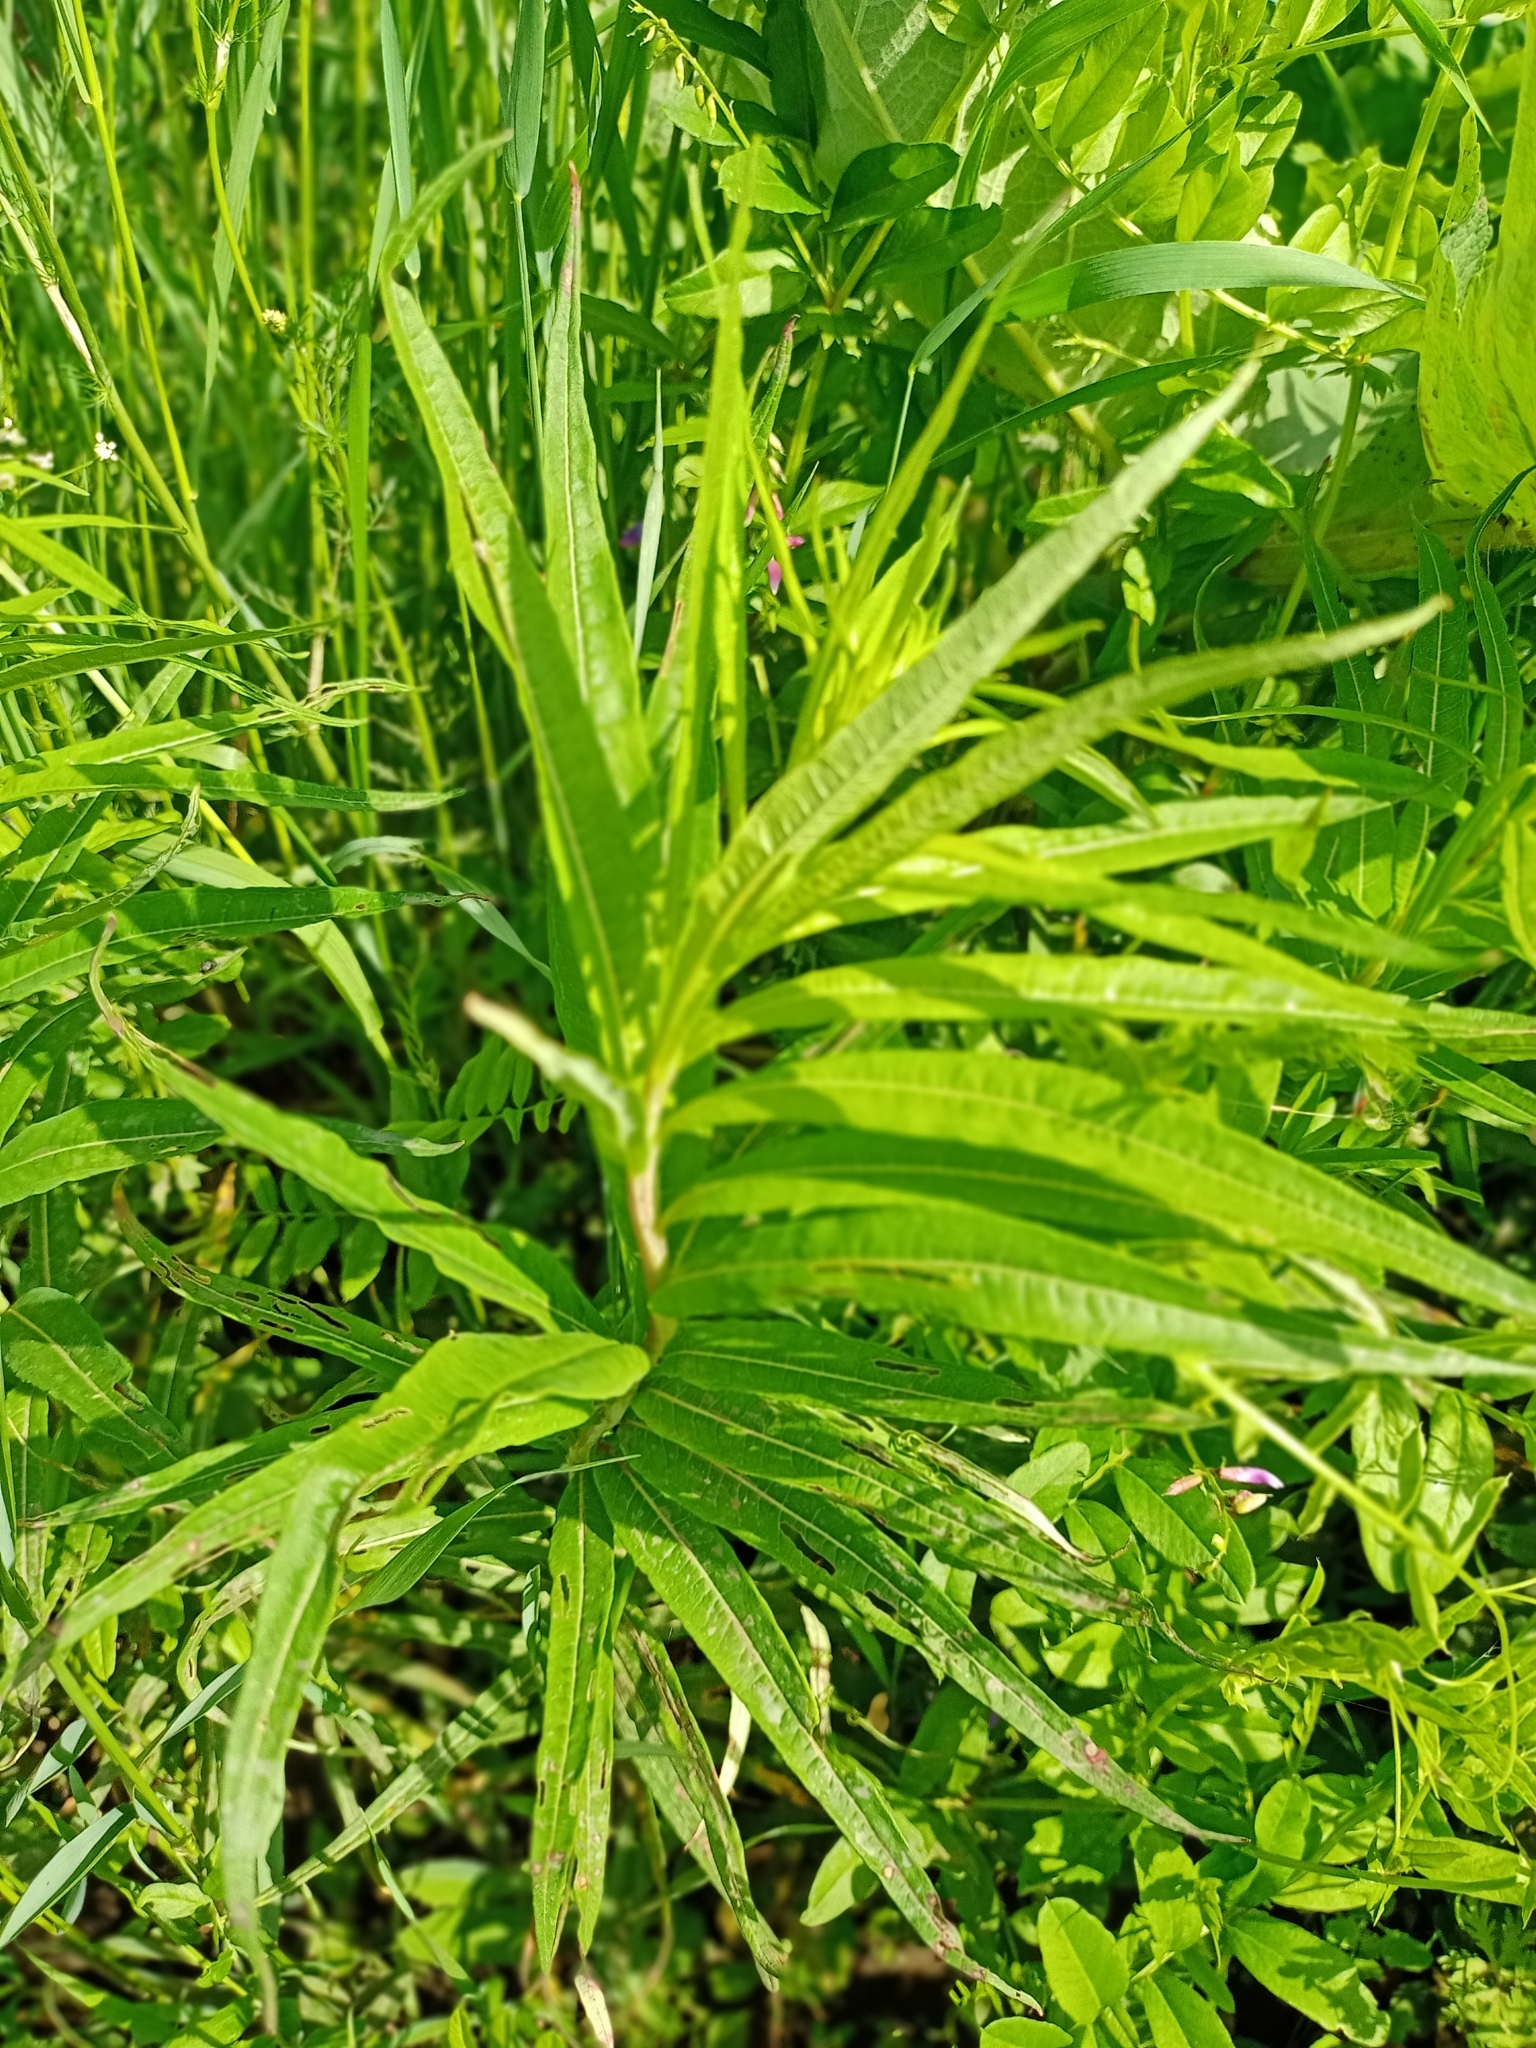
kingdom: Plantae
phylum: Tracheophyta
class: Magnoliopsida
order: Myrtales
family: Onagraceae
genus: Chamaenerion
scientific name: Chamaenerion angustifolium
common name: Fireweed
